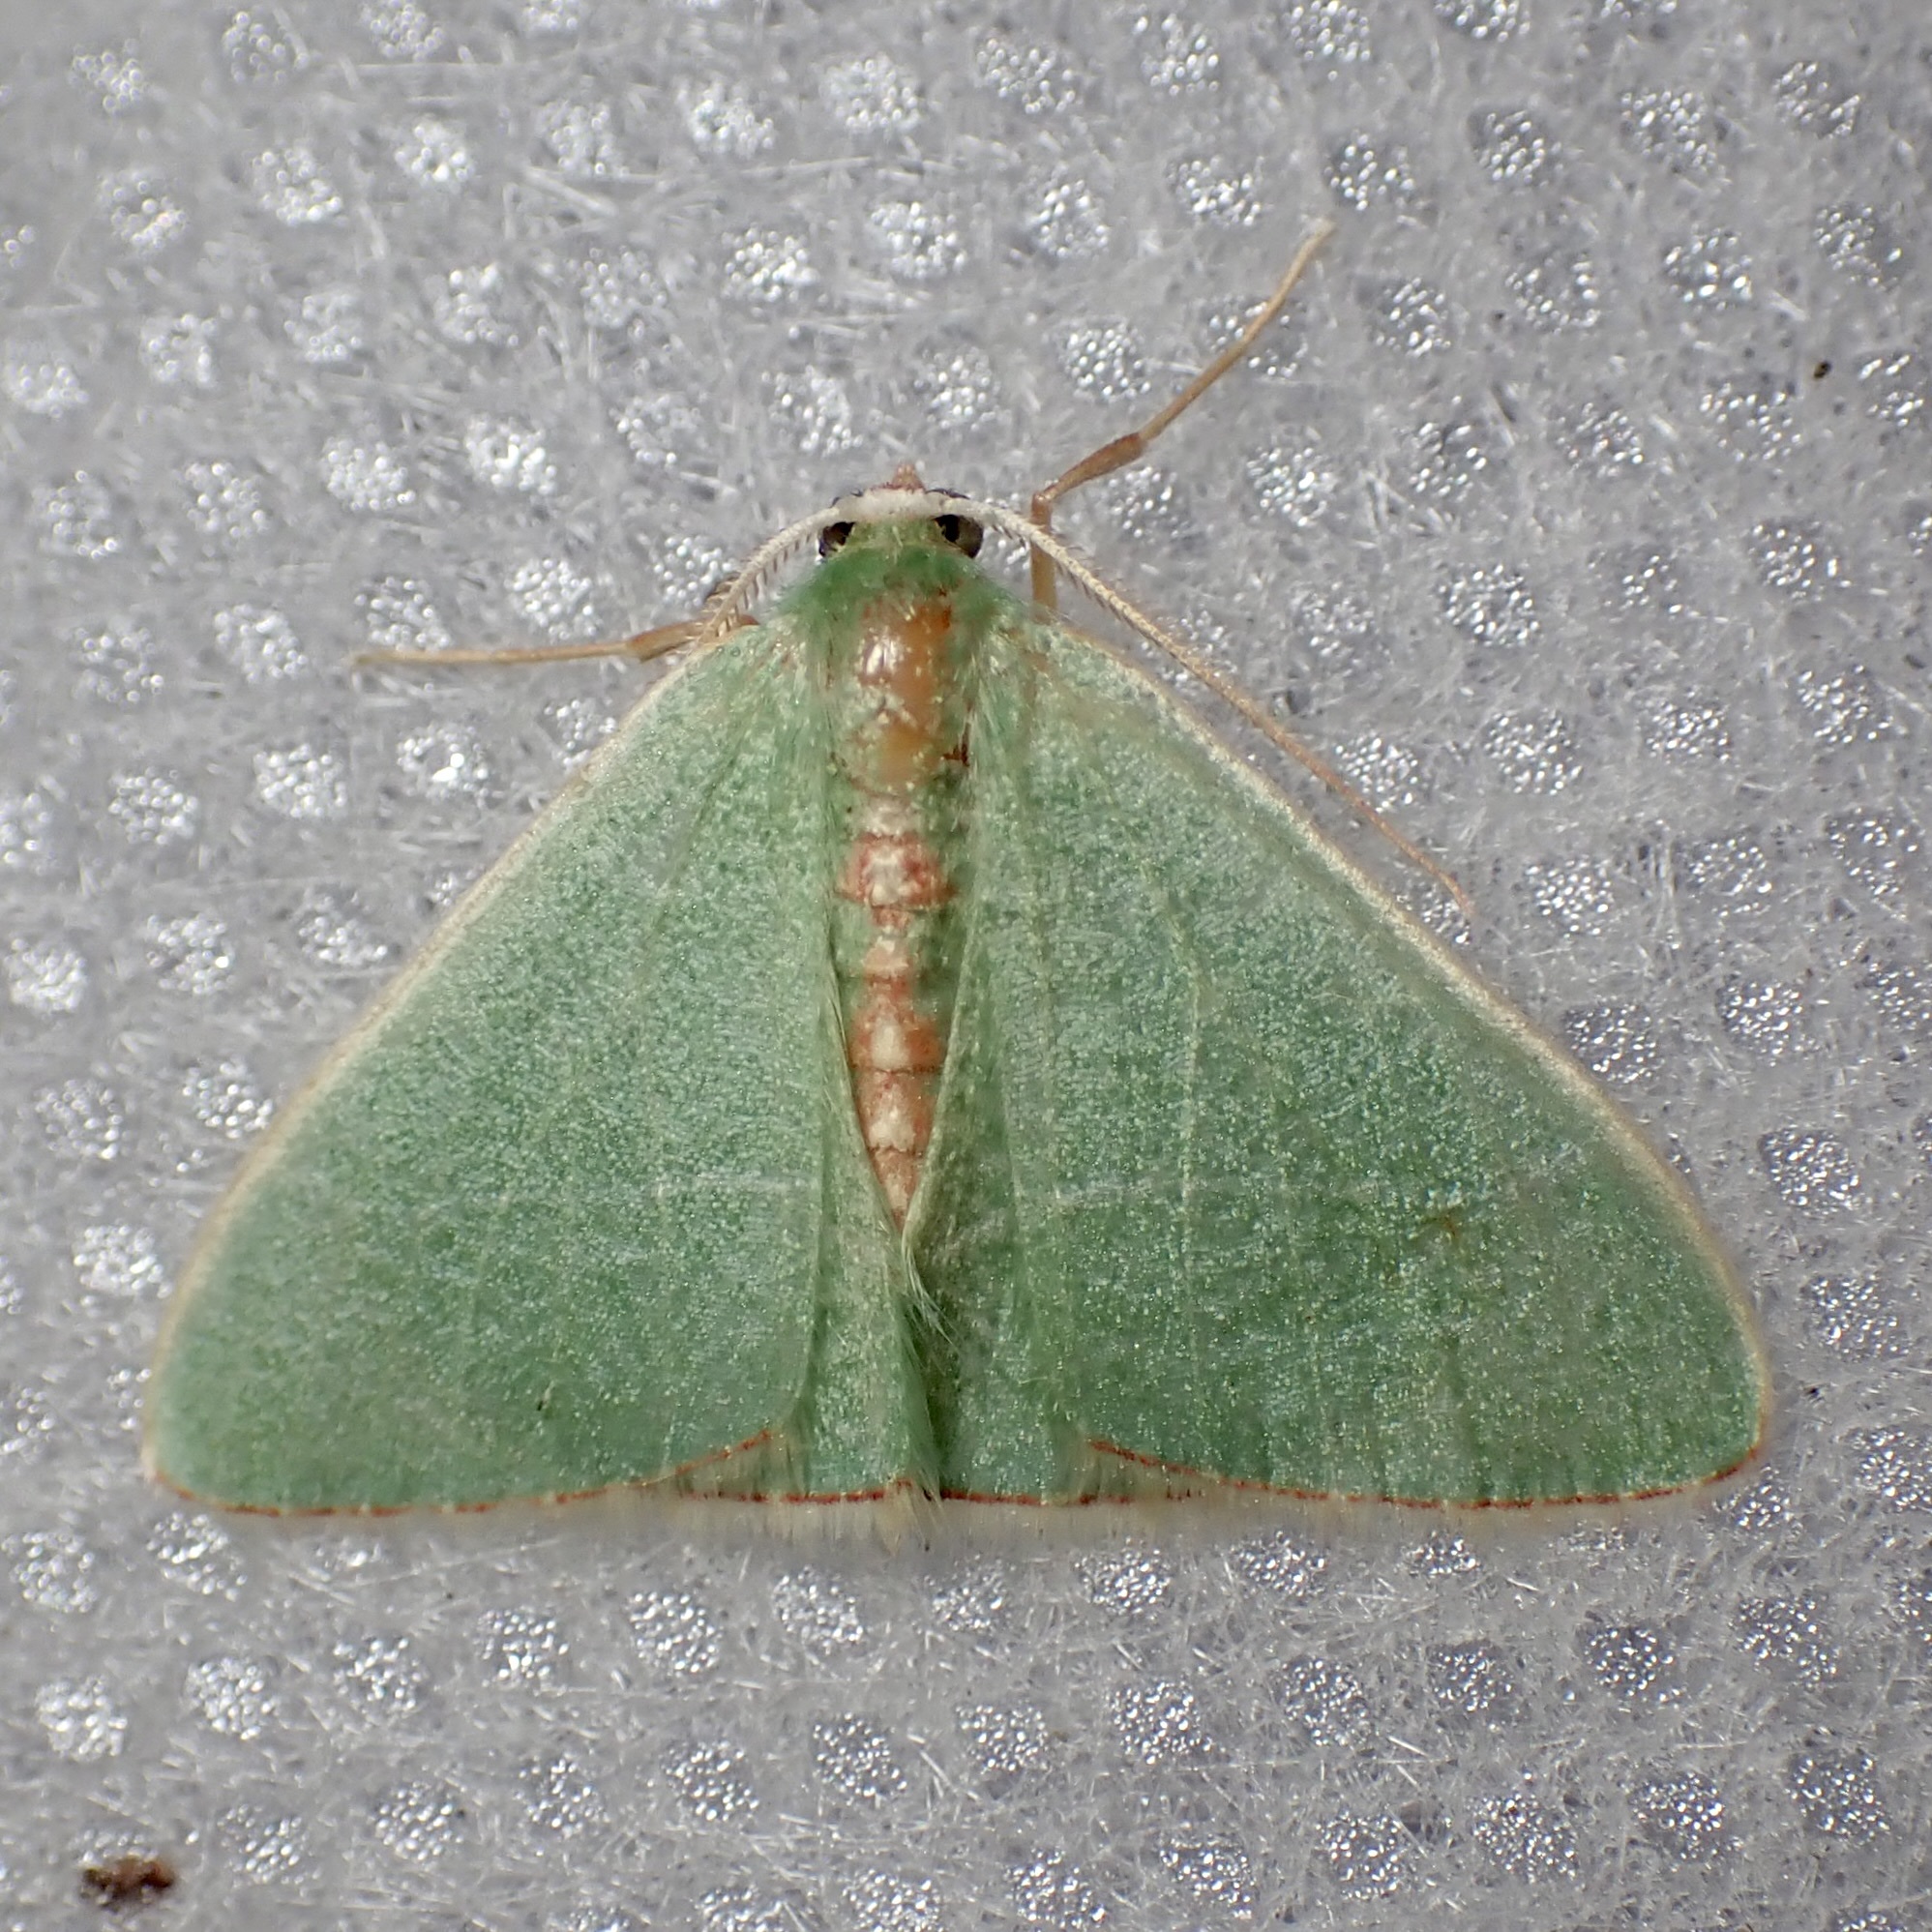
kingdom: Animalia
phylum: Arthropoda
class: Insecta
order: Lepidoptera
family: Geometridae
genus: Nemoria
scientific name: Nemoria festaria
